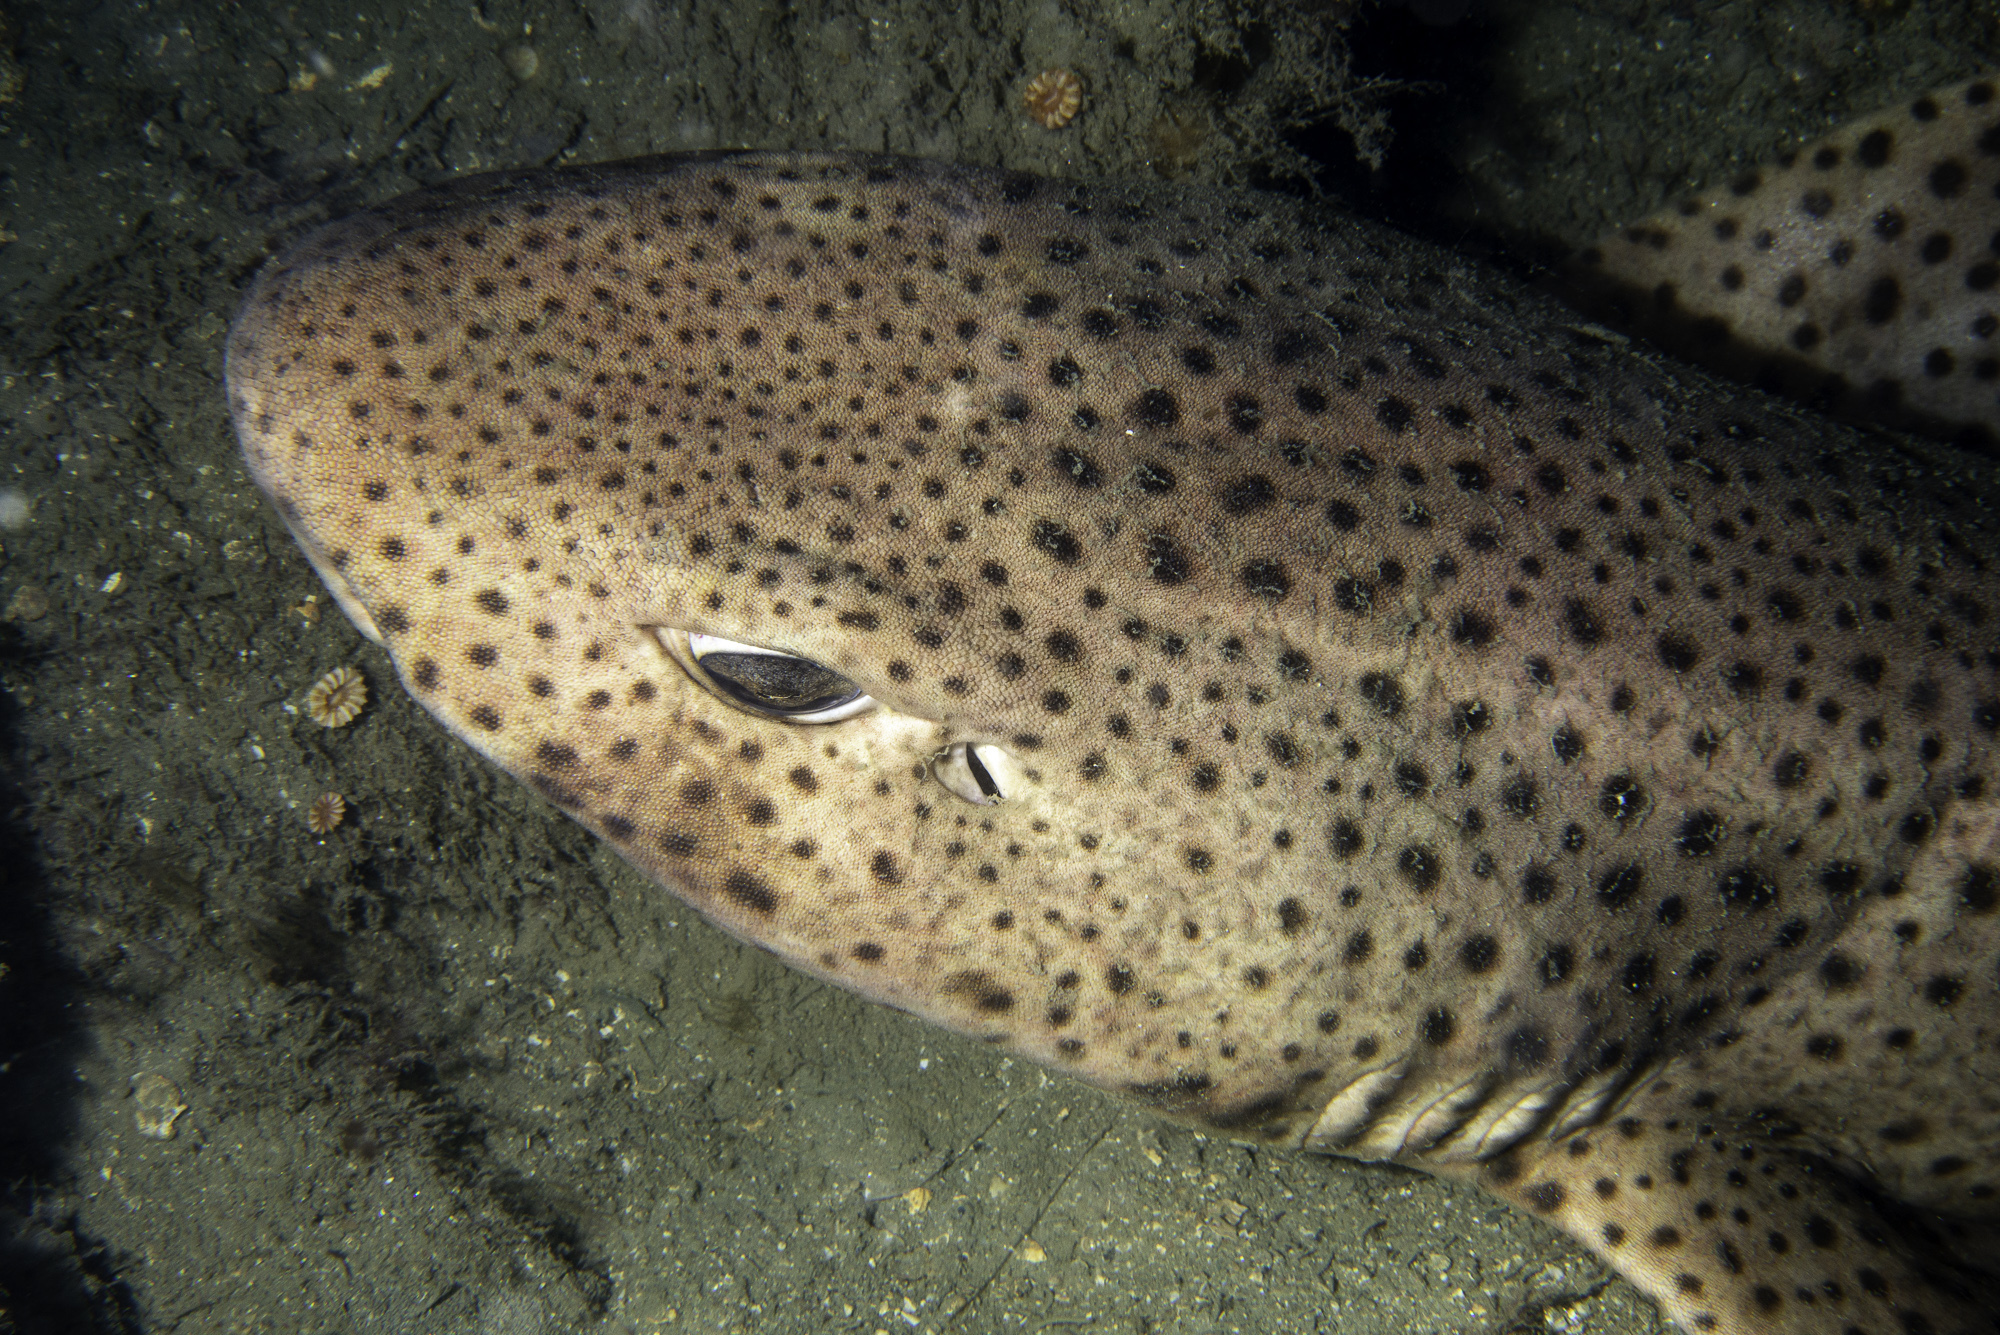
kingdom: Animalia
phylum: Chordata
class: Elasmobranchii
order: Carcharhiniformes
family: Scyliorhinidae
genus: Scyliorhinus
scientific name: Scyliorhinus stellaris
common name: Nursehound
